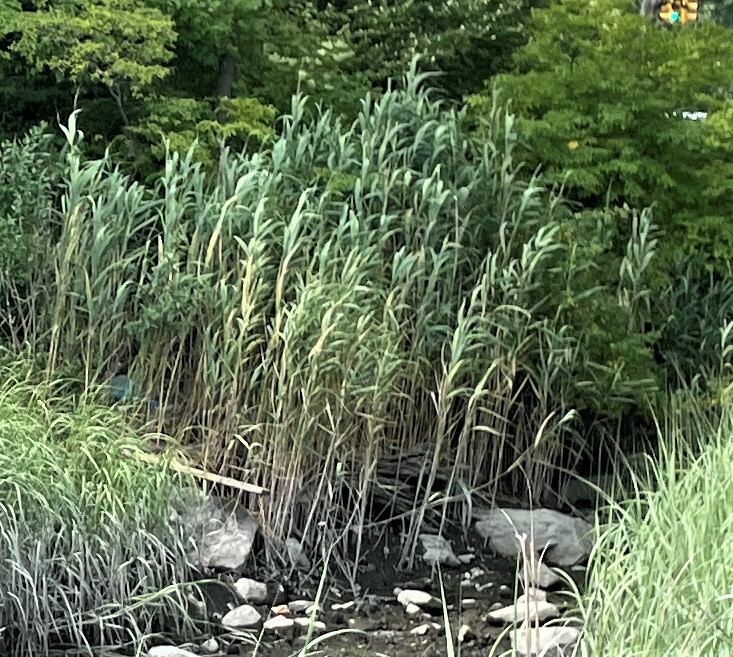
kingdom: Plantae
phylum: Tracheophyta
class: Liliopsida
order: Poales
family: Poaceae
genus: Phragmites
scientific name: Phragmites australis
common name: Common reed
